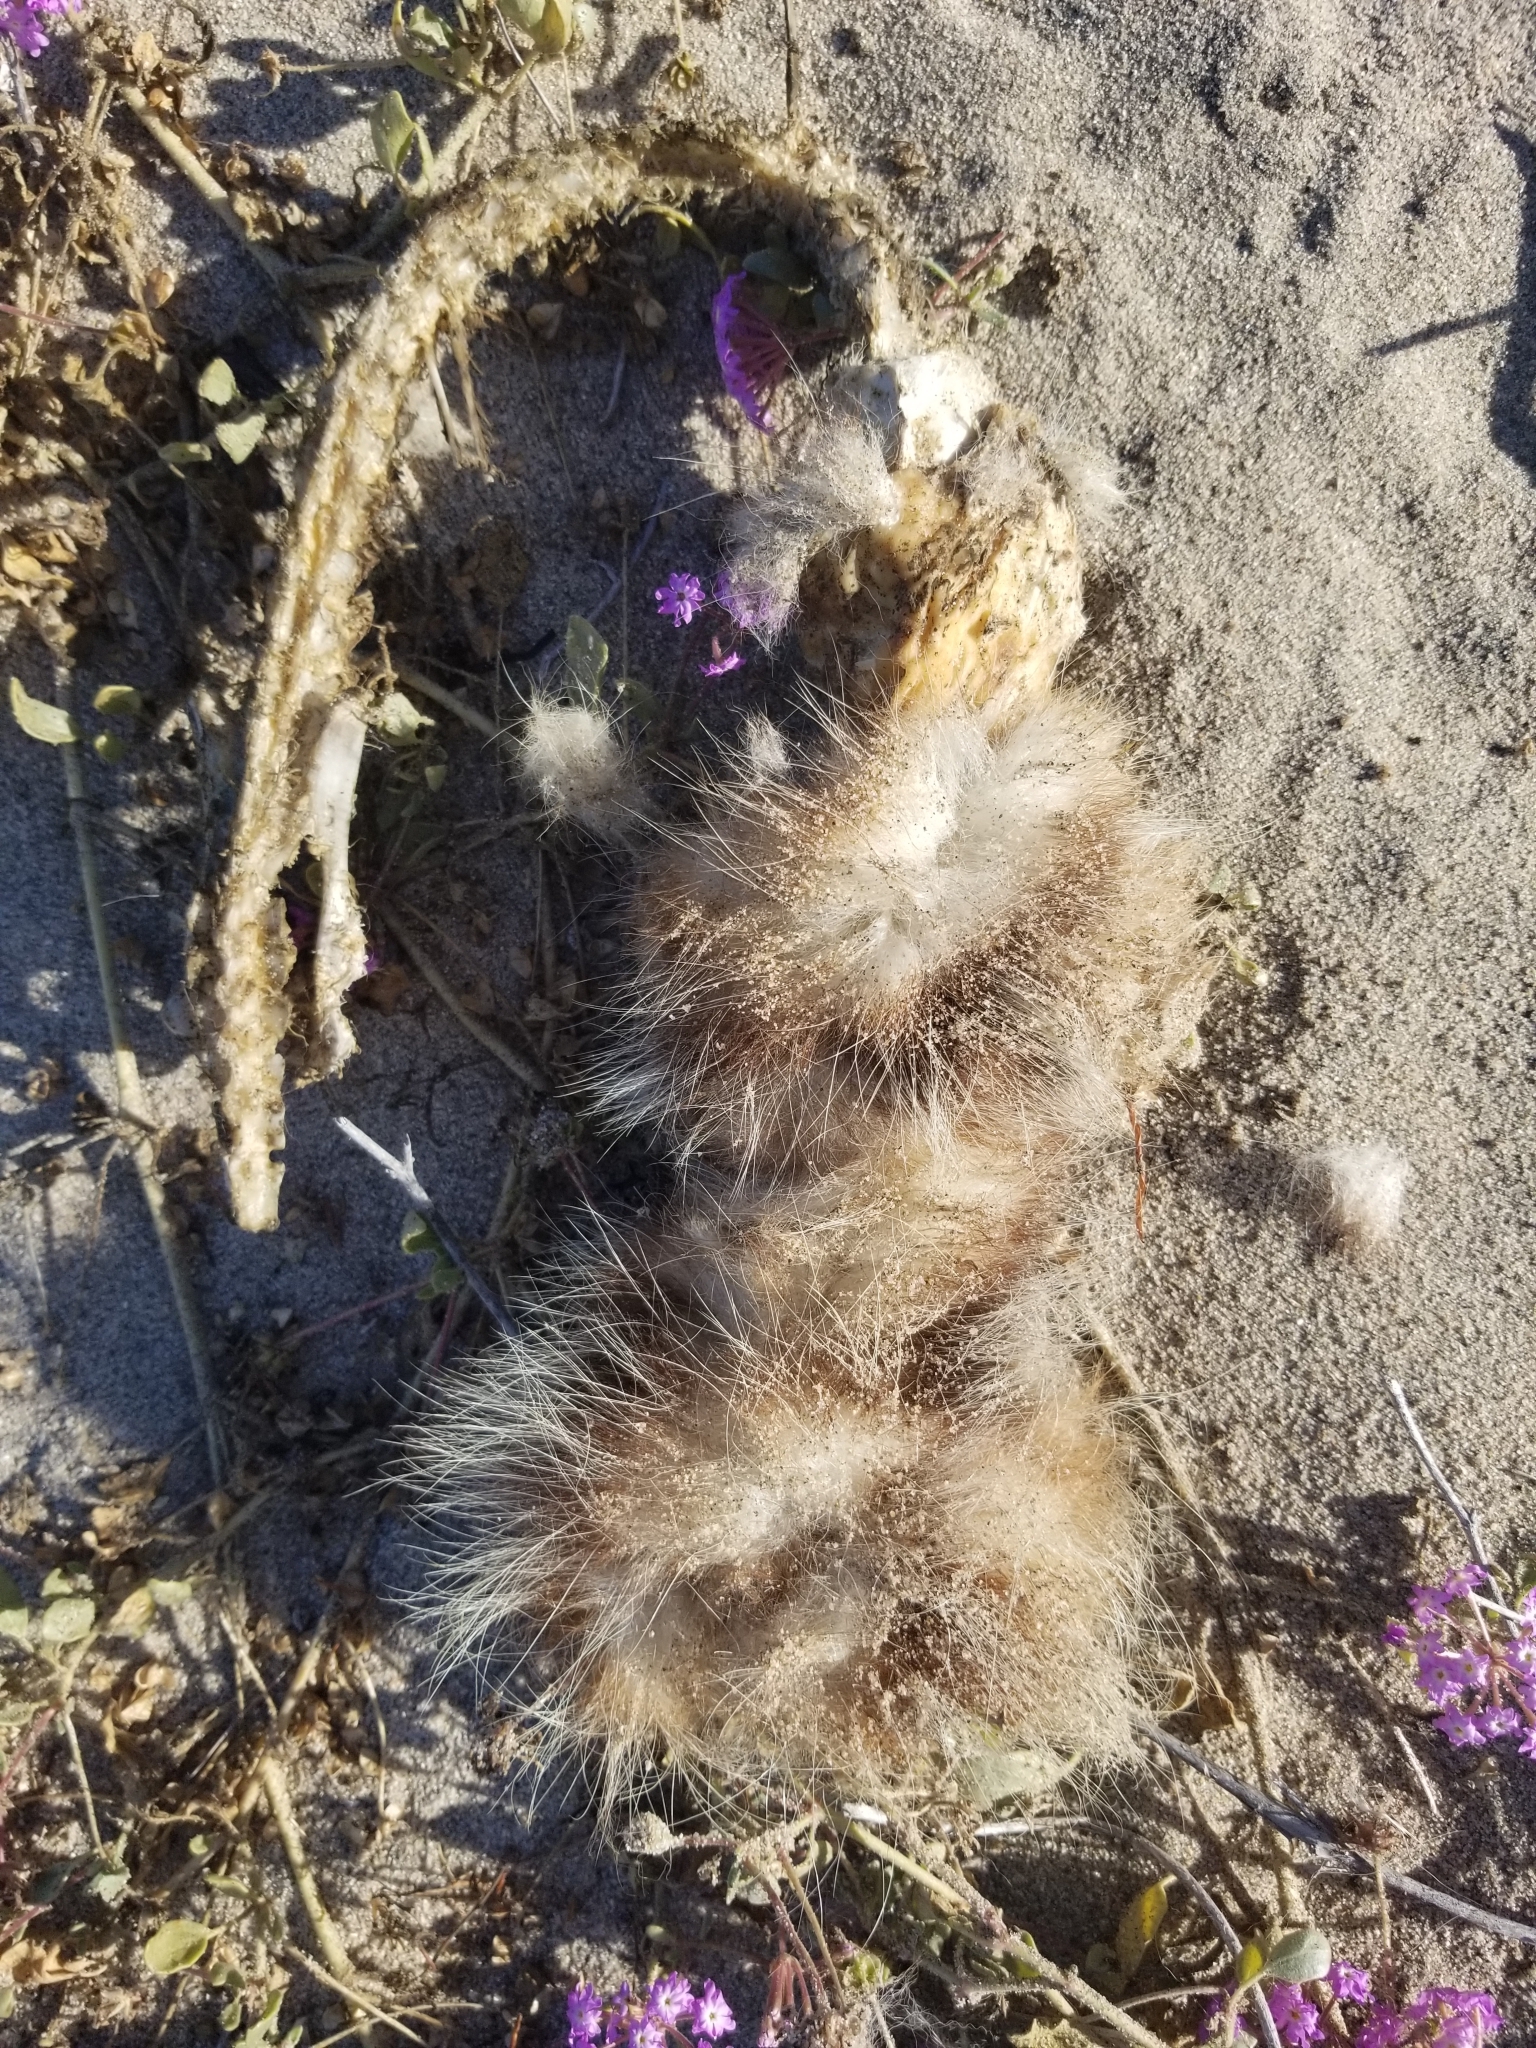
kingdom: Animalia
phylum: Chordata
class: Mammalia
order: Didelphimorphia
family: Didelphidae
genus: Didelphis
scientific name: Didelphis virginiana
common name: Virginia opossum
